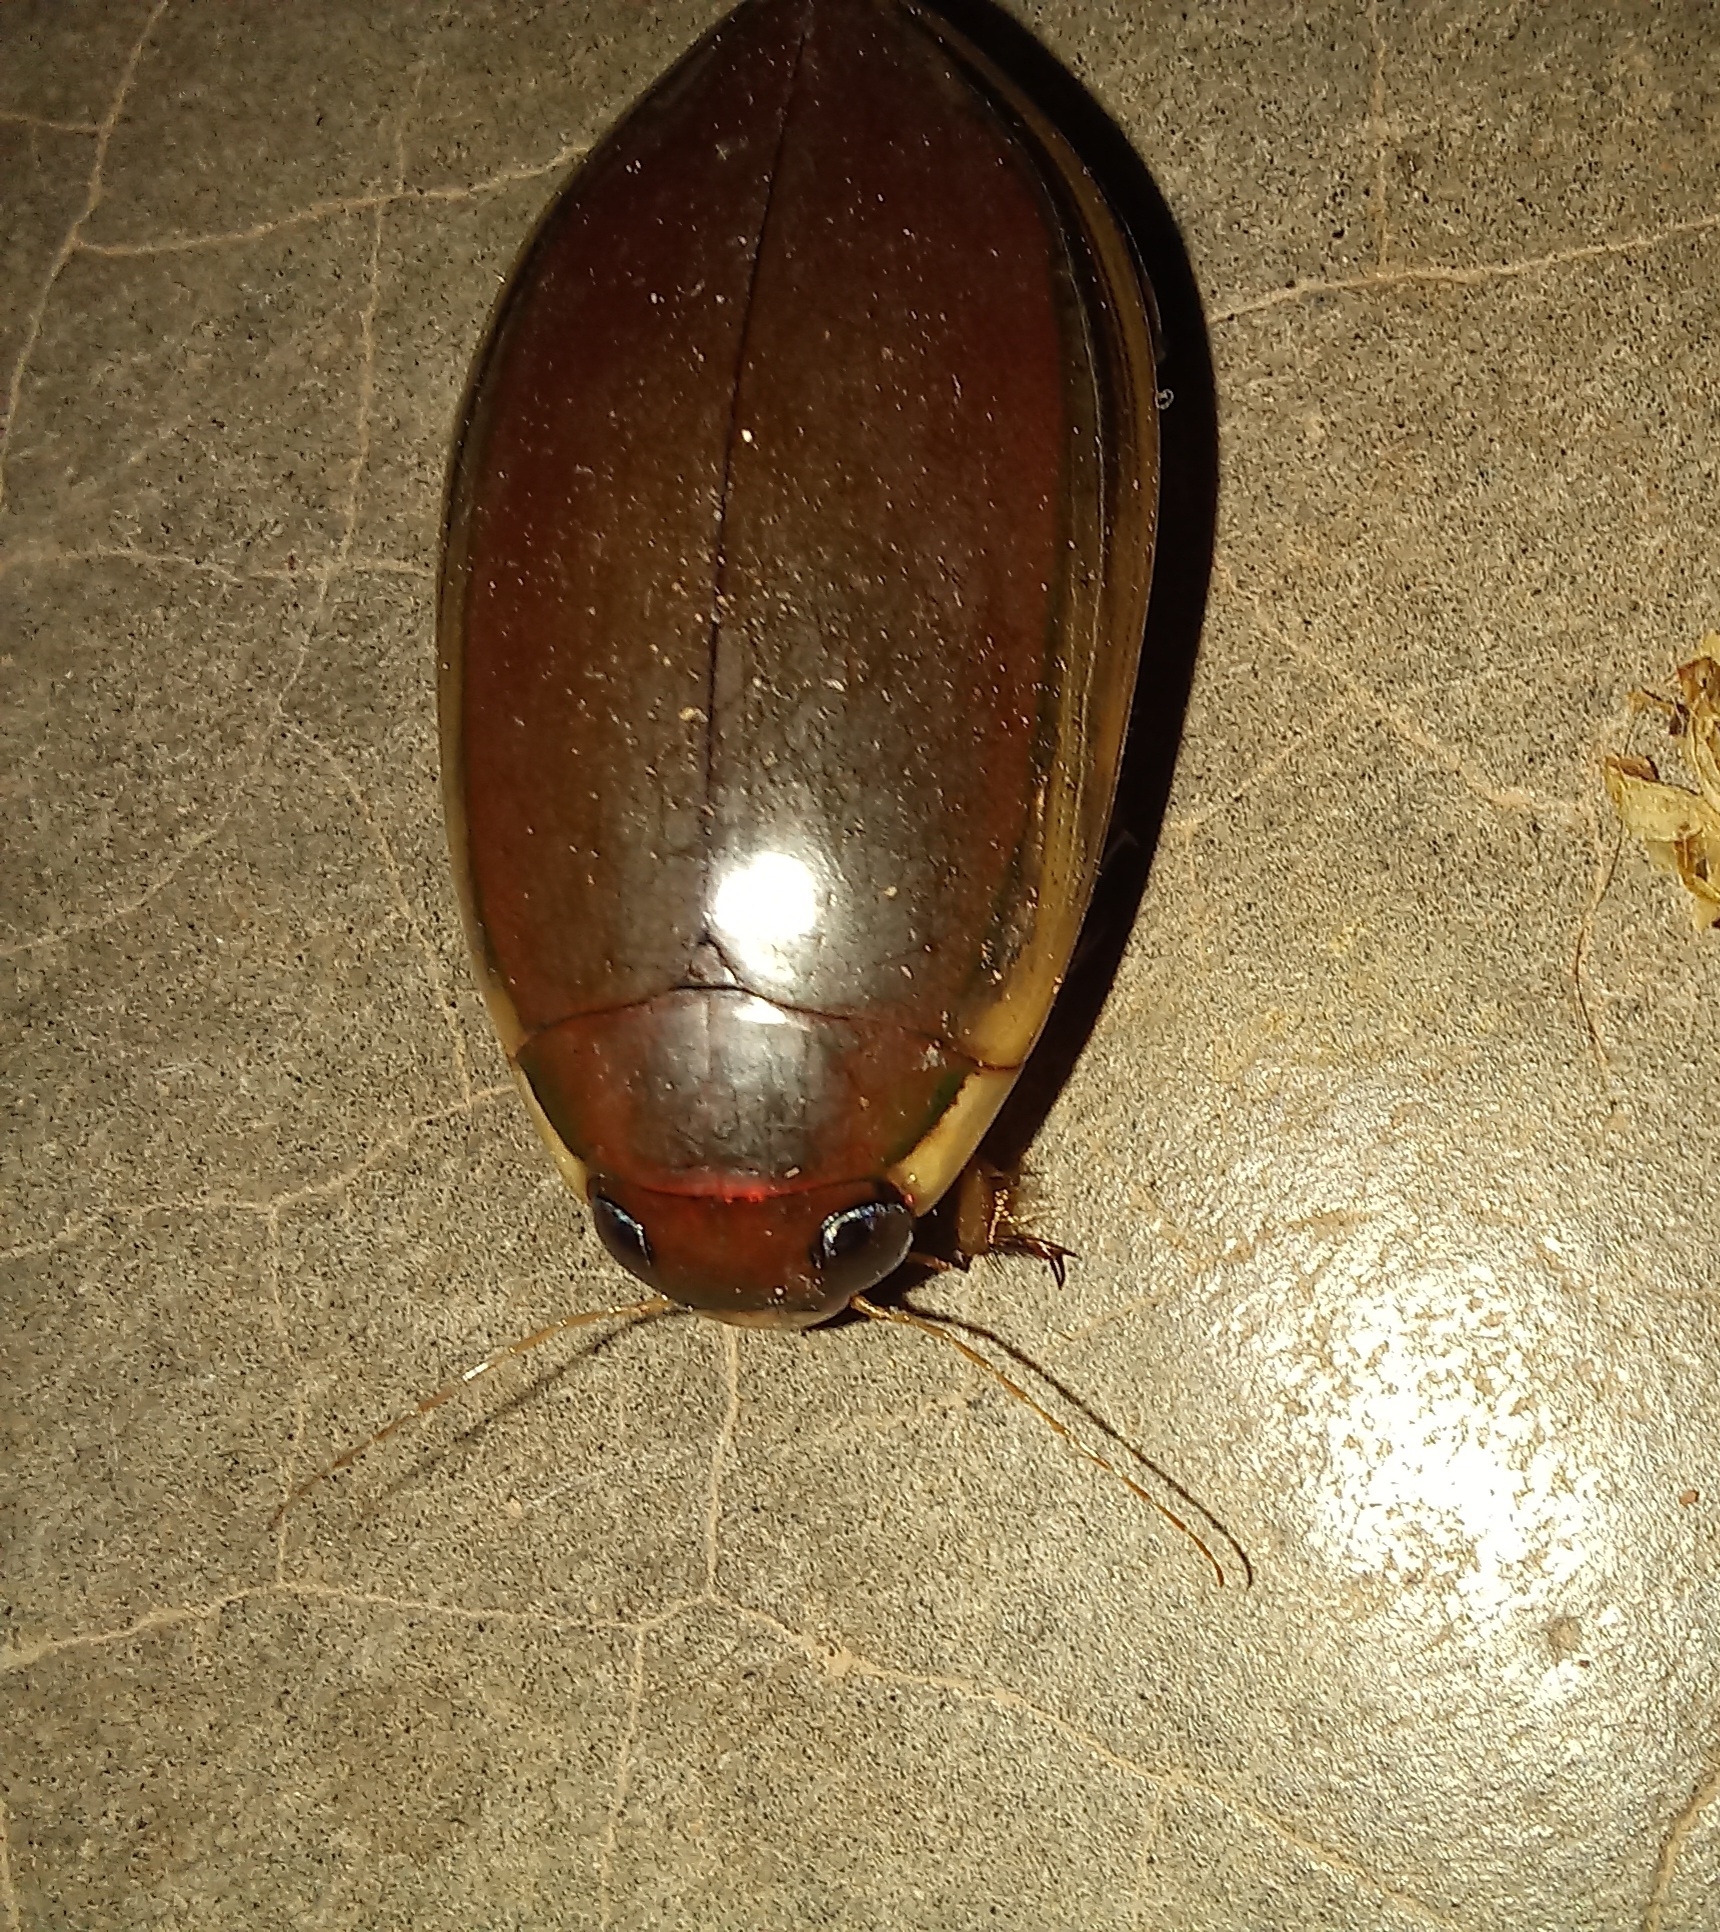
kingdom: Animalia
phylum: Arthropoda
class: Insecta
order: Coleoptera
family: Dytiscidae
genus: Cybister
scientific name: Cybister tripunctatus
